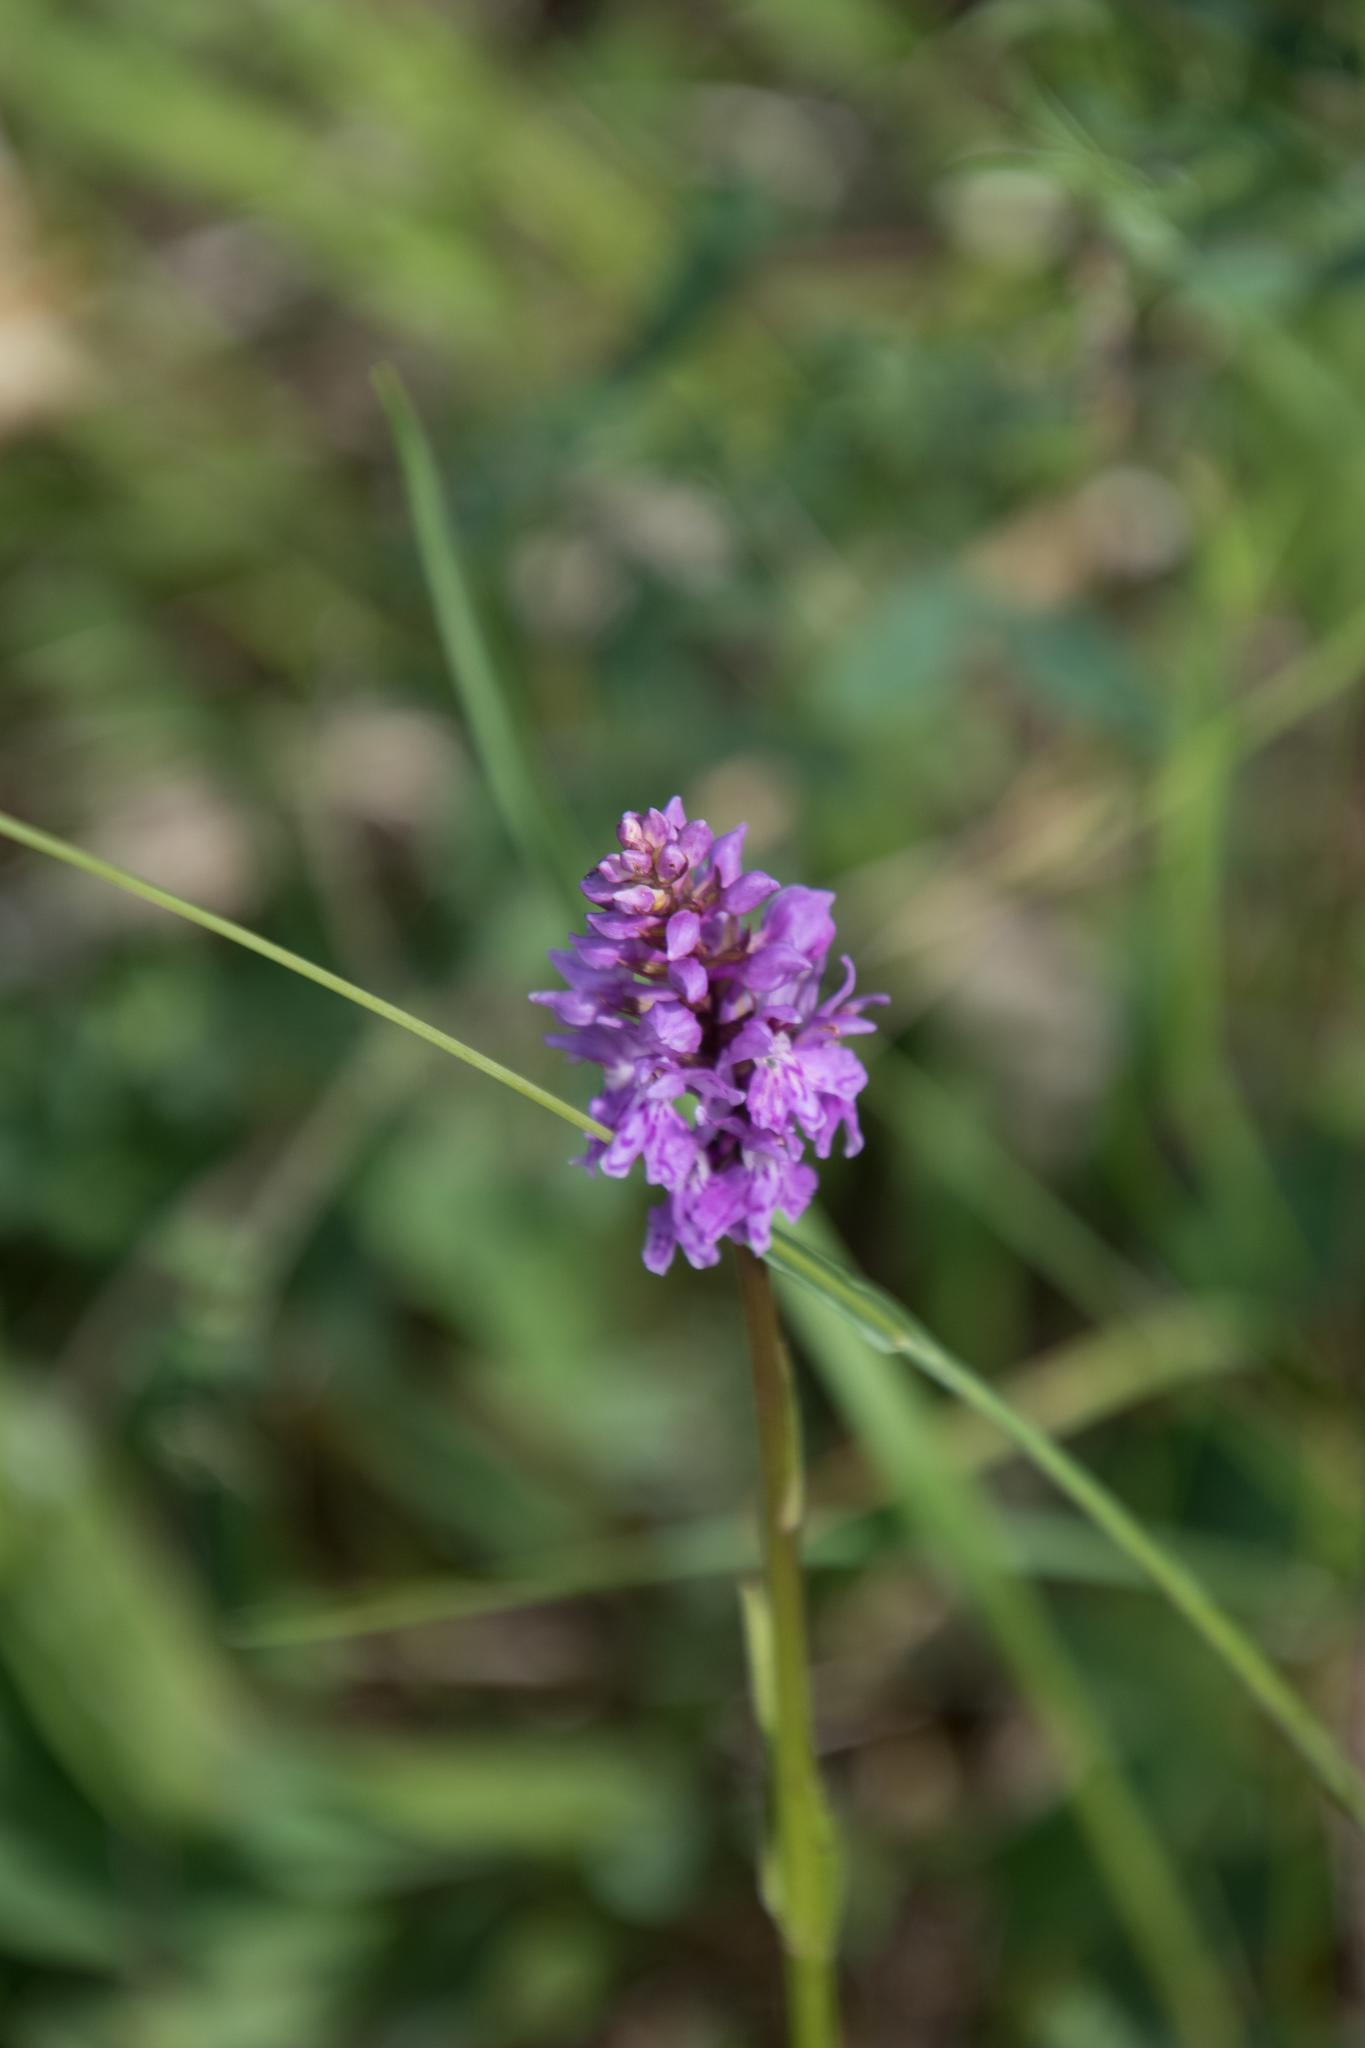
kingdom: Plantae
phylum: Tracheophyta
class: Liliopsida
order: Asparagales
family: Orchidaceae
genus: Dactylorhiza
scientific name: Dactylorhiza maculata
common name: Heath spotted-orchid
